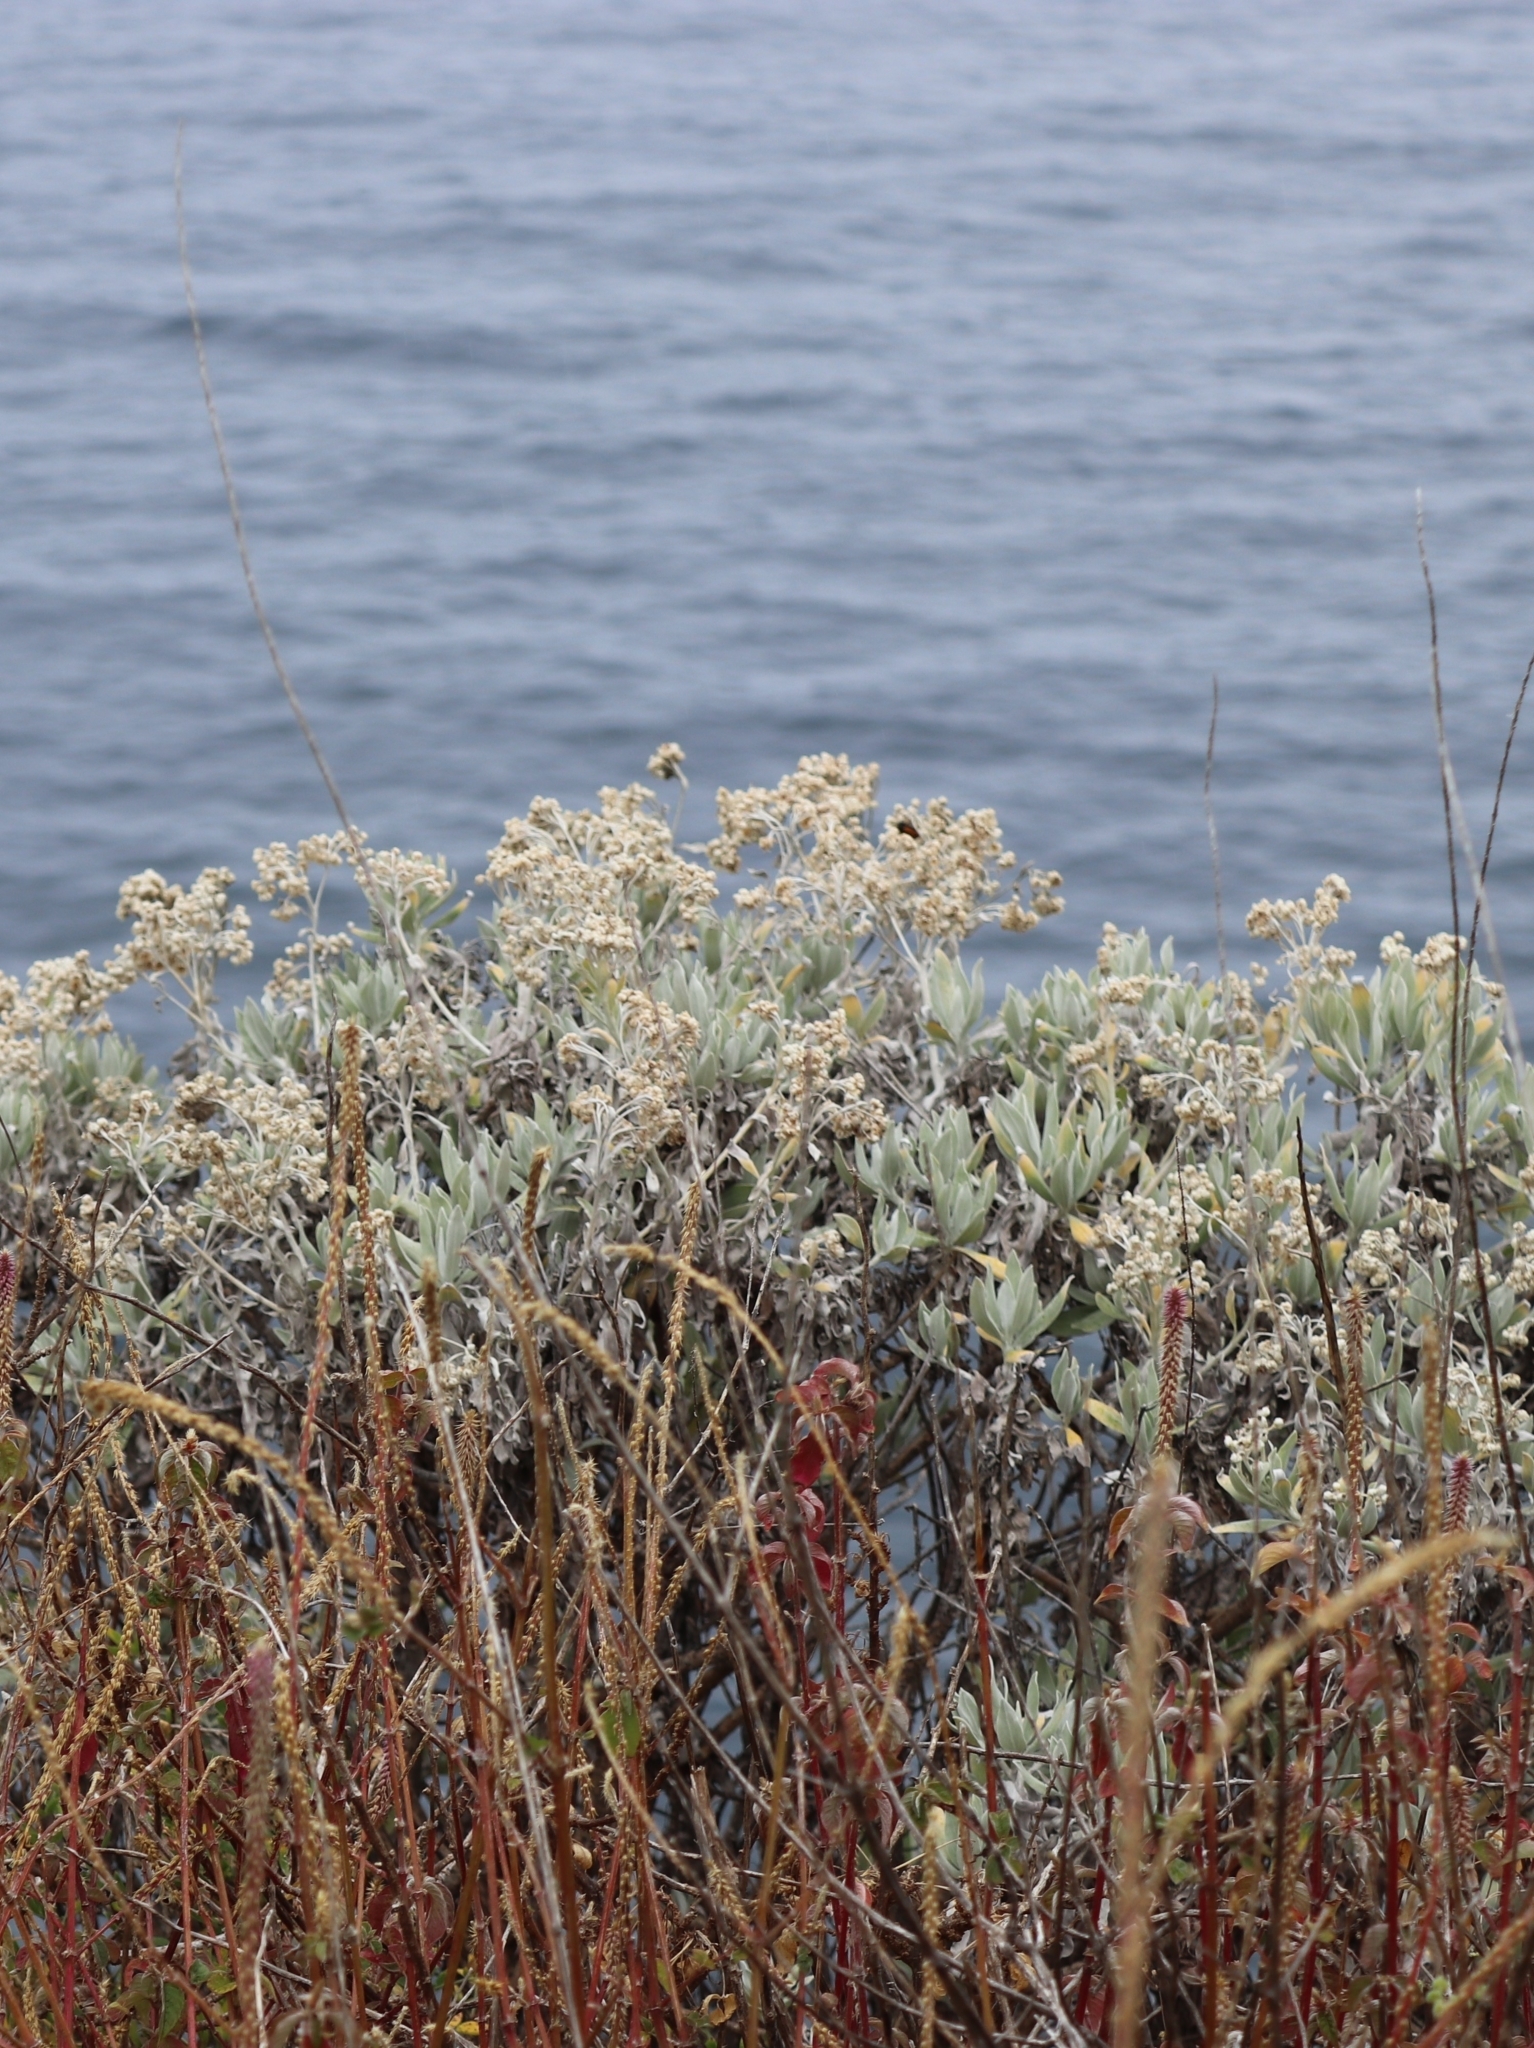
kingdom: Plantae
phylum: Tracheophyta
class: Magnoliopsida
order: Asterales
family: Asteraceae
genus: Helichrysum
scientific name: Helichrysum melaleucum
